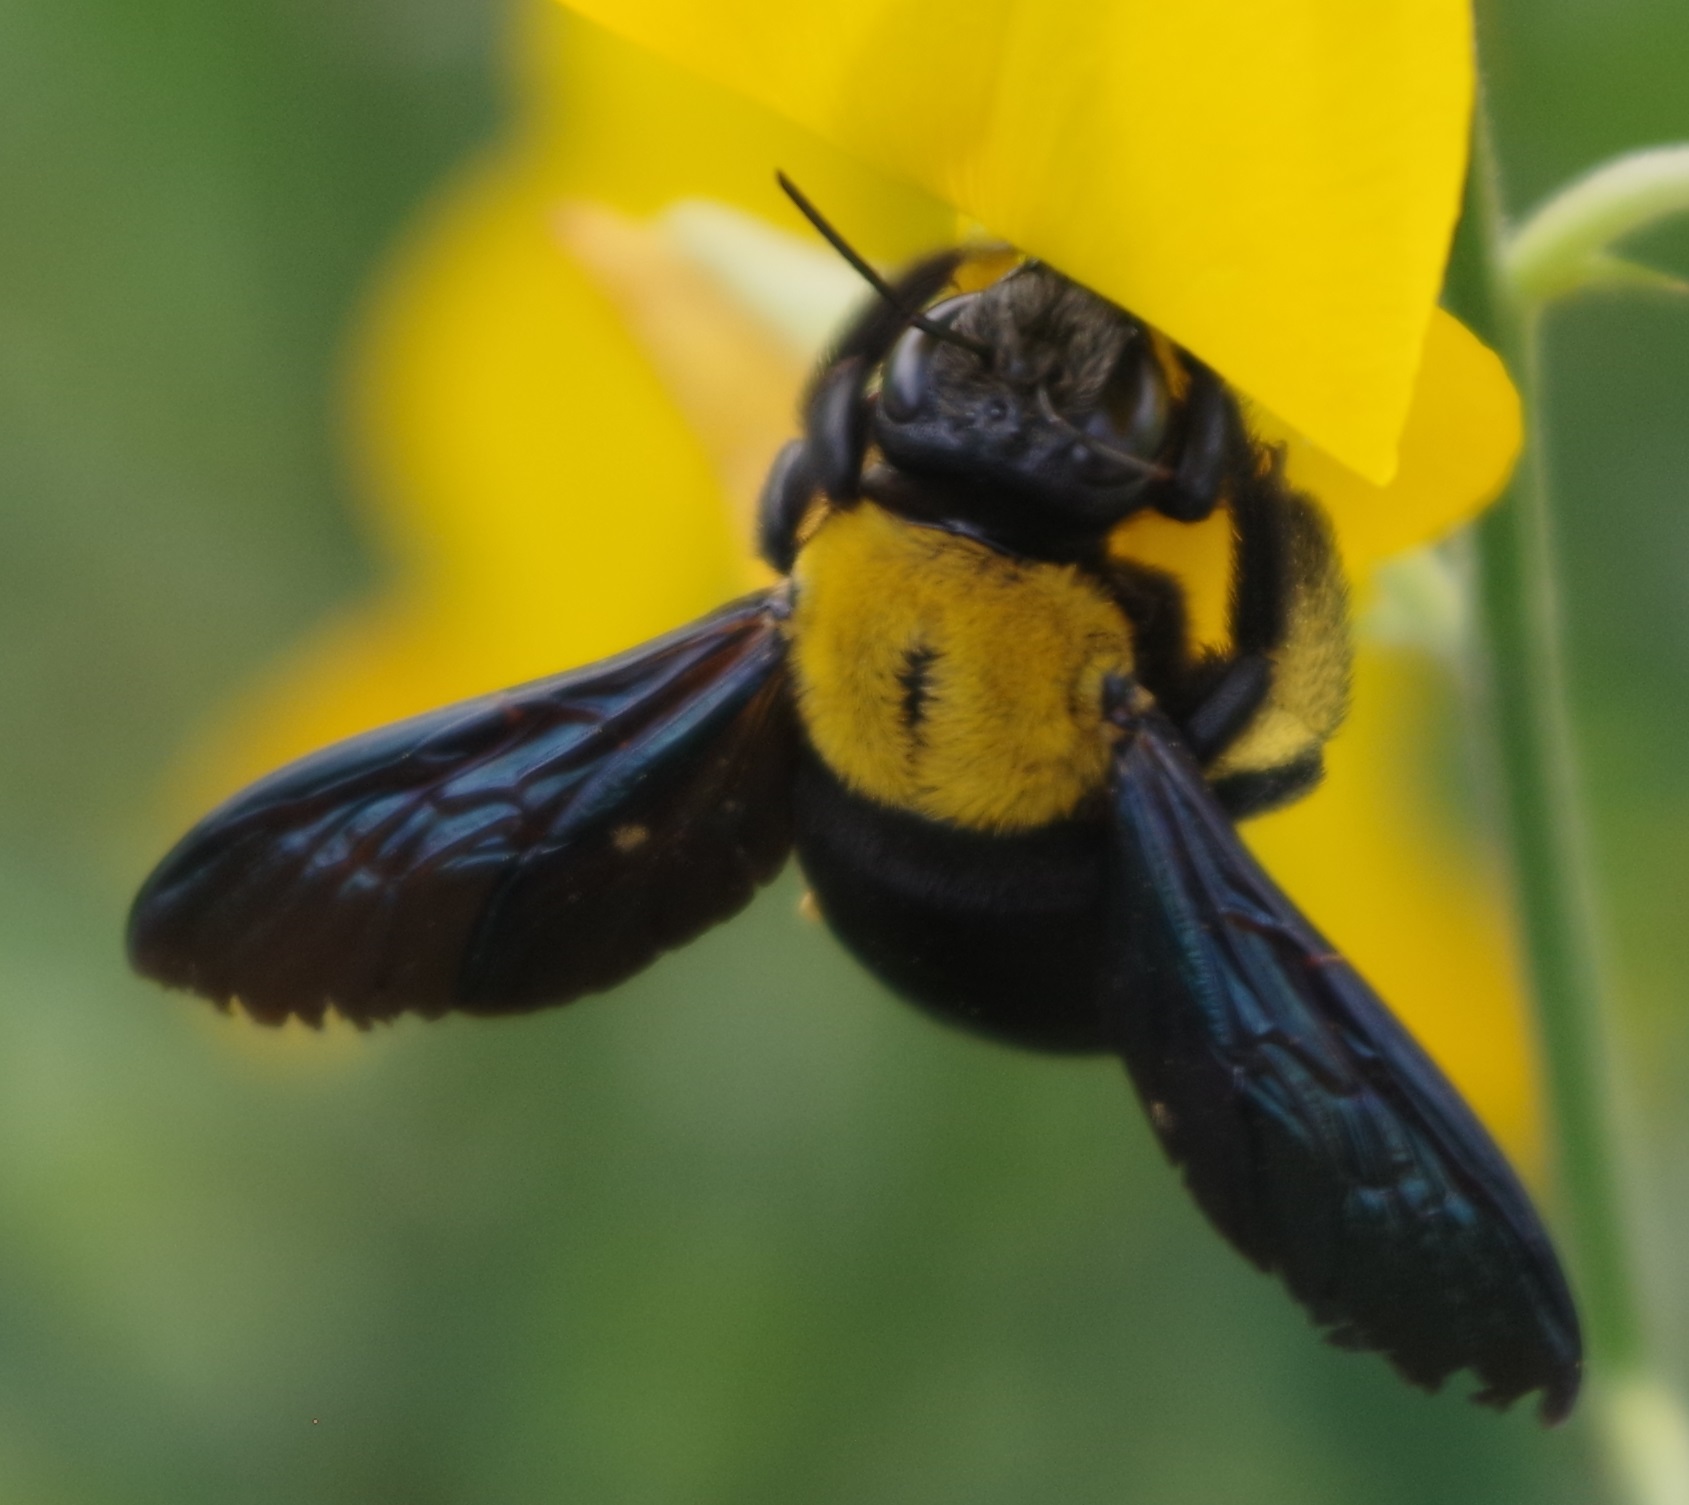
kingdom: Animalia
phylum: Arthropoda
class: Insecta
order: Hymenoptera
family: Apidae
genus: Xylocopa
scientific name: Xylocopa aestuans
